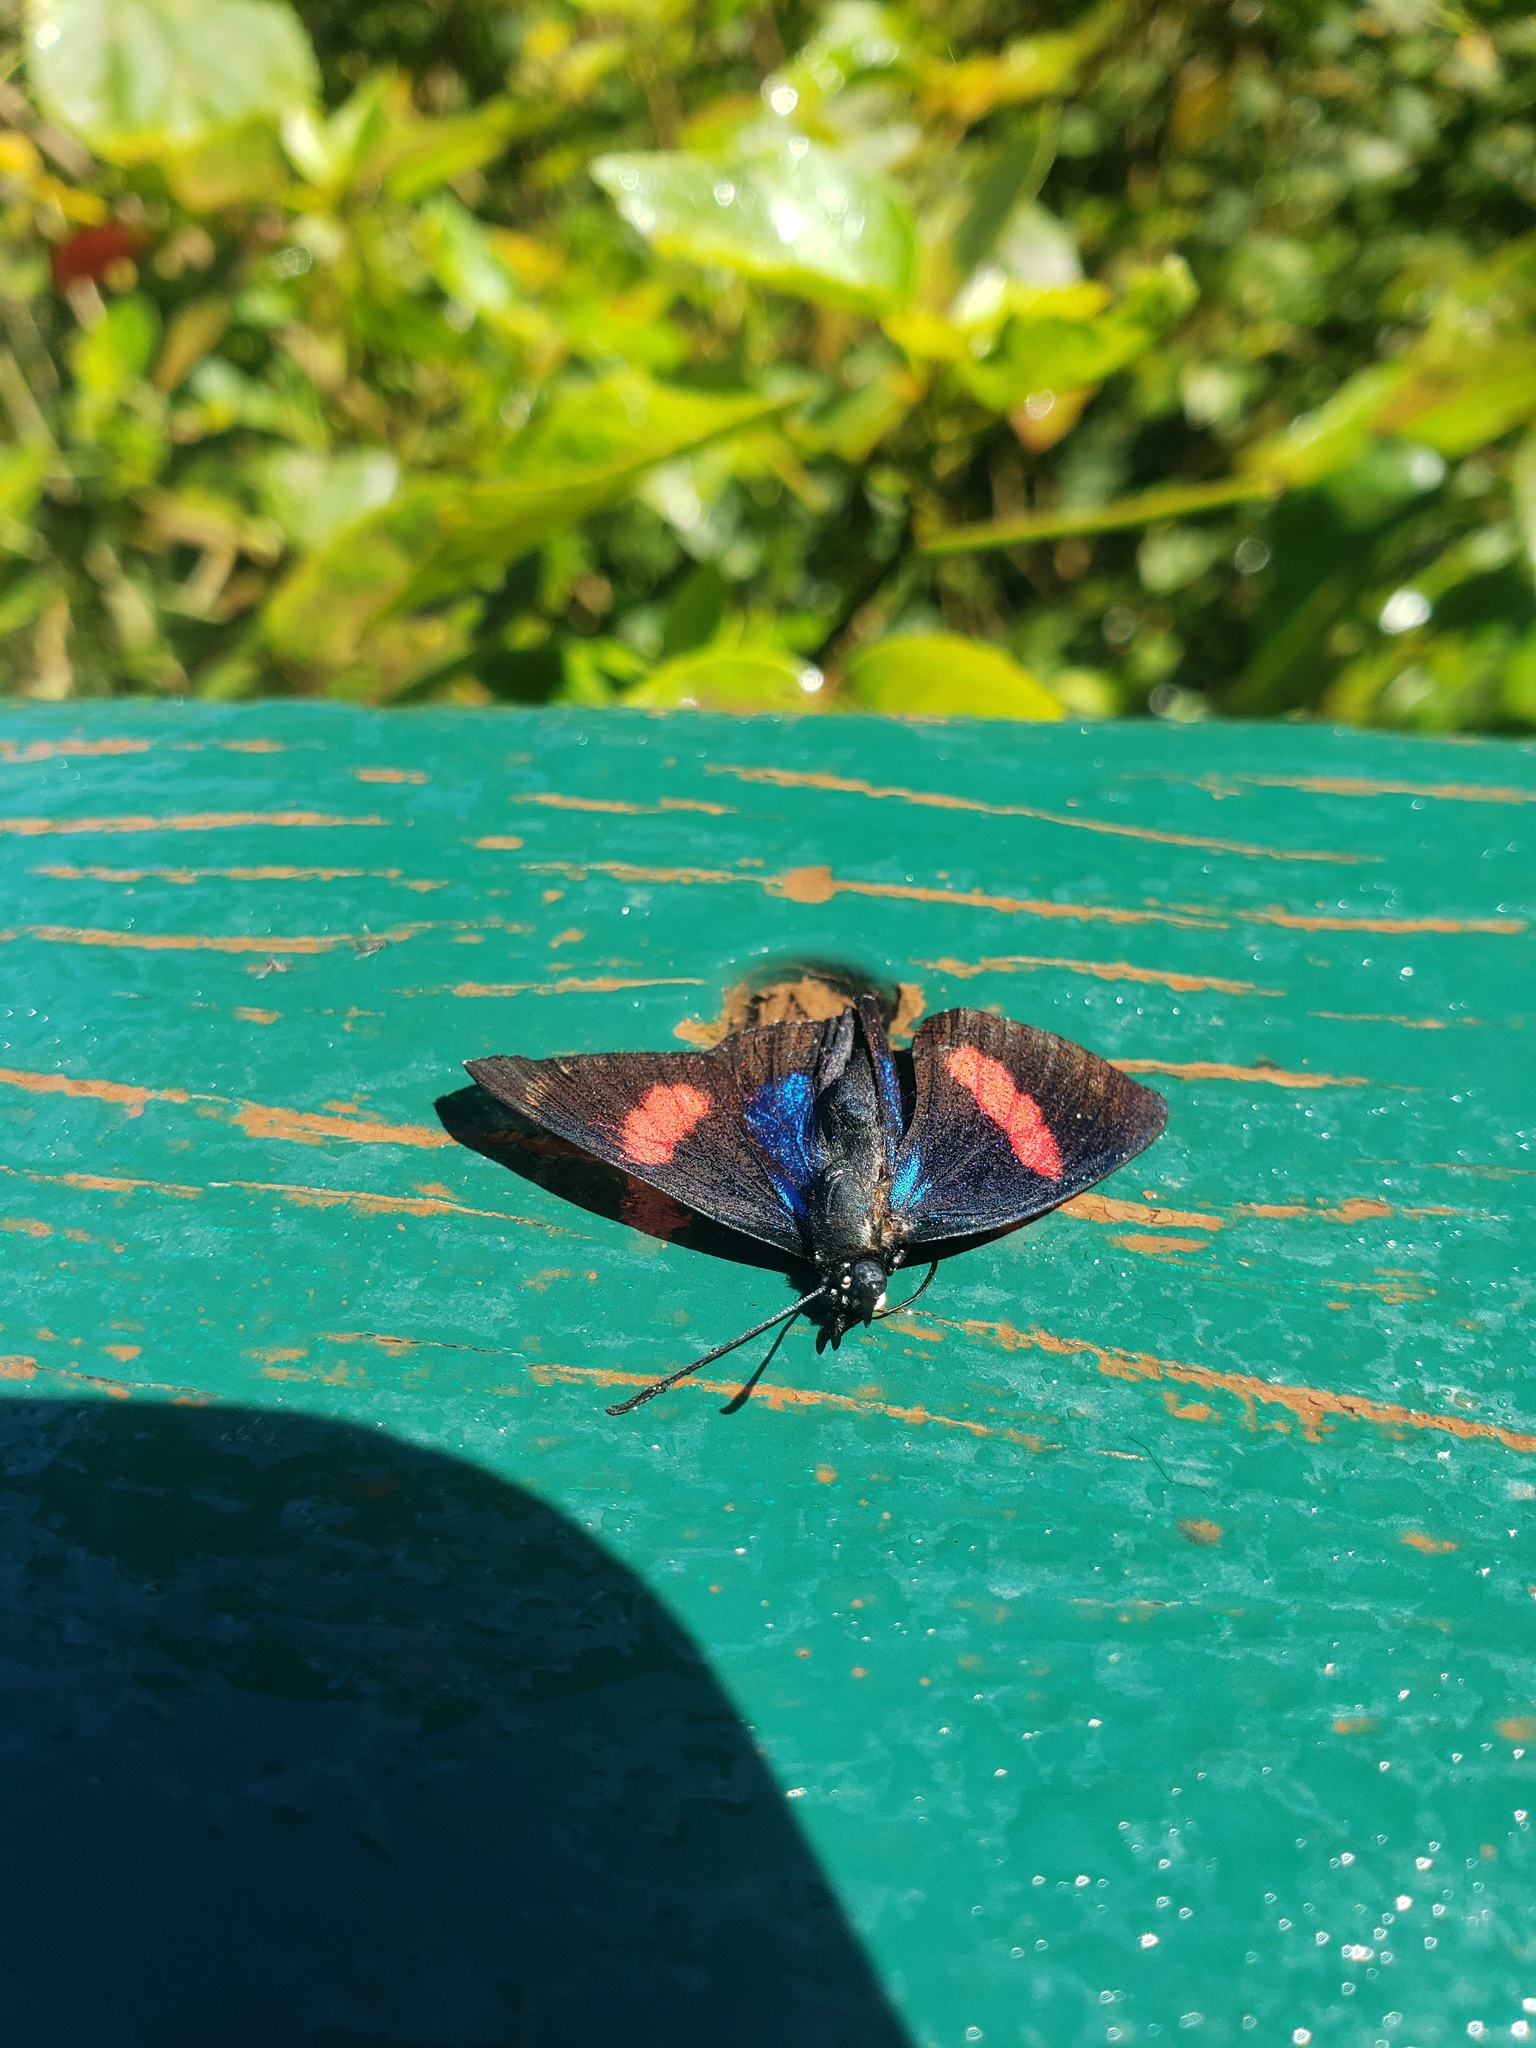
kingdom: Animalia
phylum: Arthropoda
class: Insecta
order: Lepidoptera
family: Nymphalidae
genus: Catagramma
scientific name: Catagramma Callicore hydaspes
